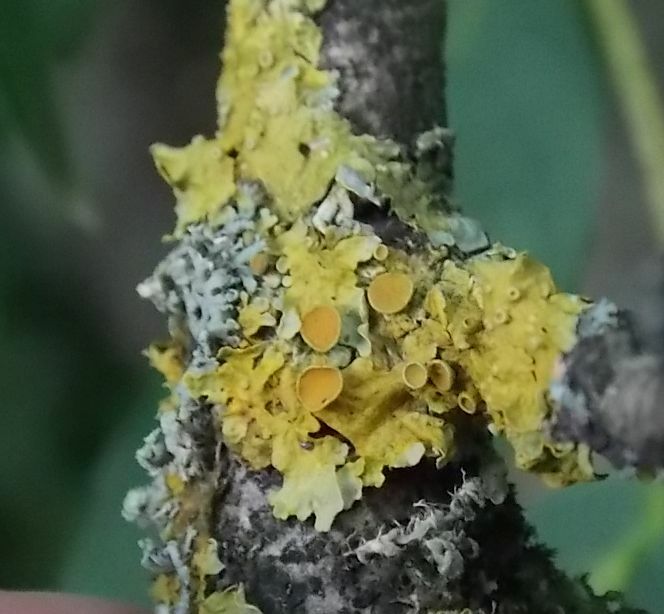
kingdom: Fungi
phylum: Ascomycota
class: Lecanoromycetes
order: Teloschistales
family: Teloschistaceae
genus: Xanthoria
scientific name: Xanthoria parietina
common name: Common orange lichen
